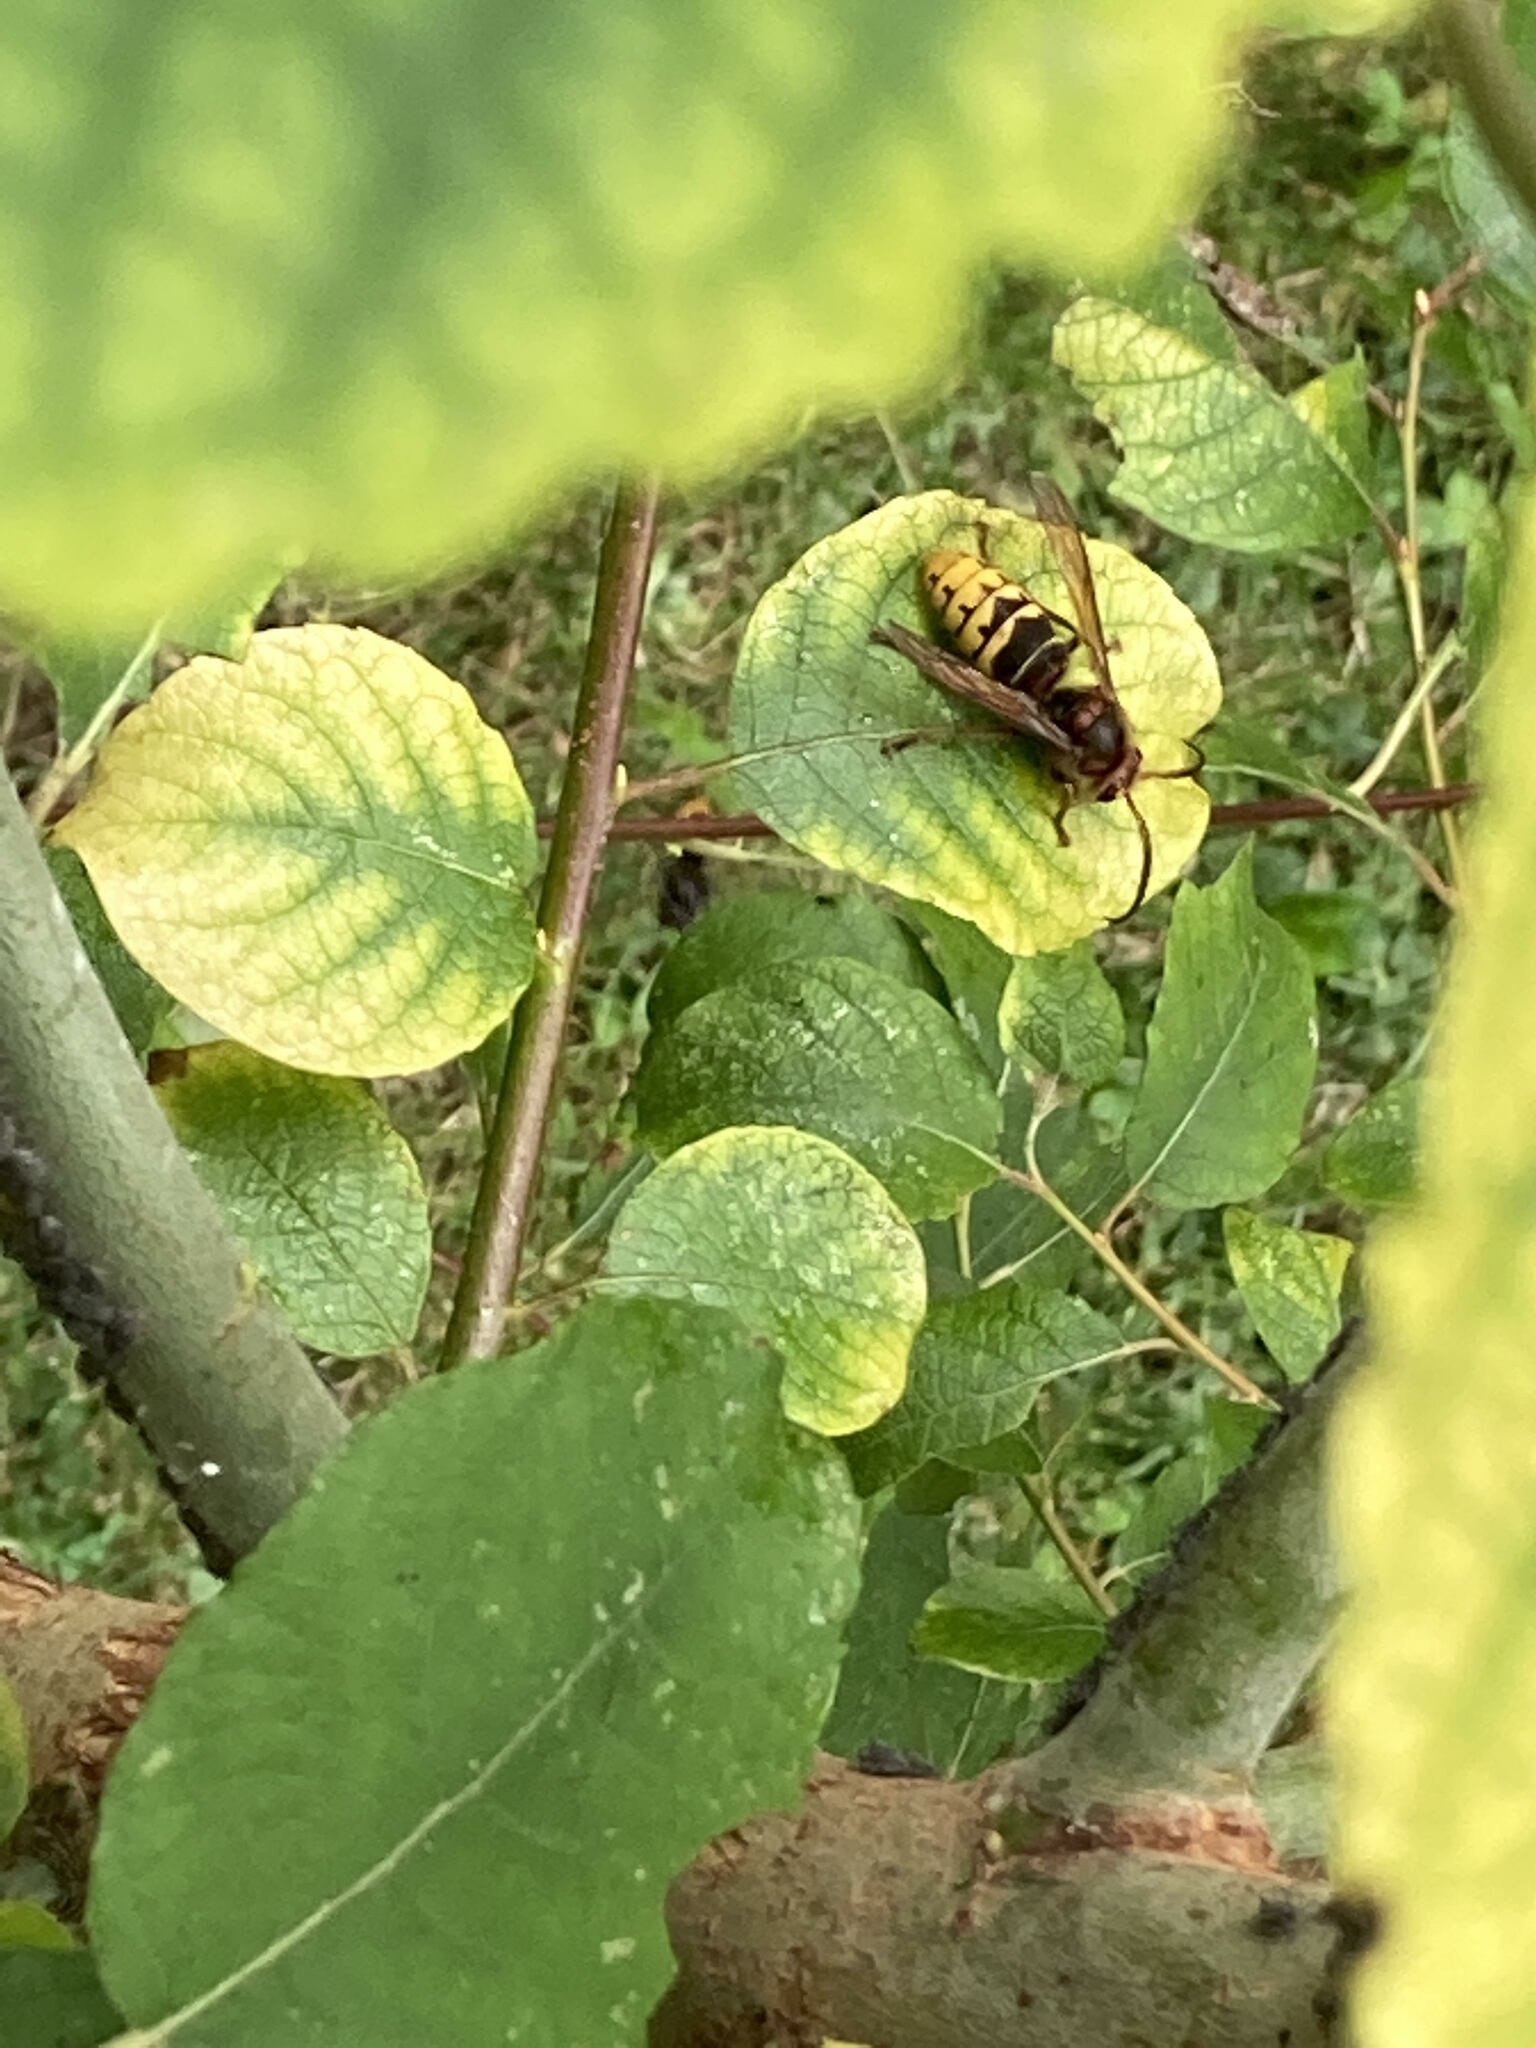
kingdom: Animalia
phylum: Arthropoda
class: Insecta
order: Hymenoptera
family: Vespidae
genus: Vespa
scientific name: Vespa crabro
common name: Hornet
